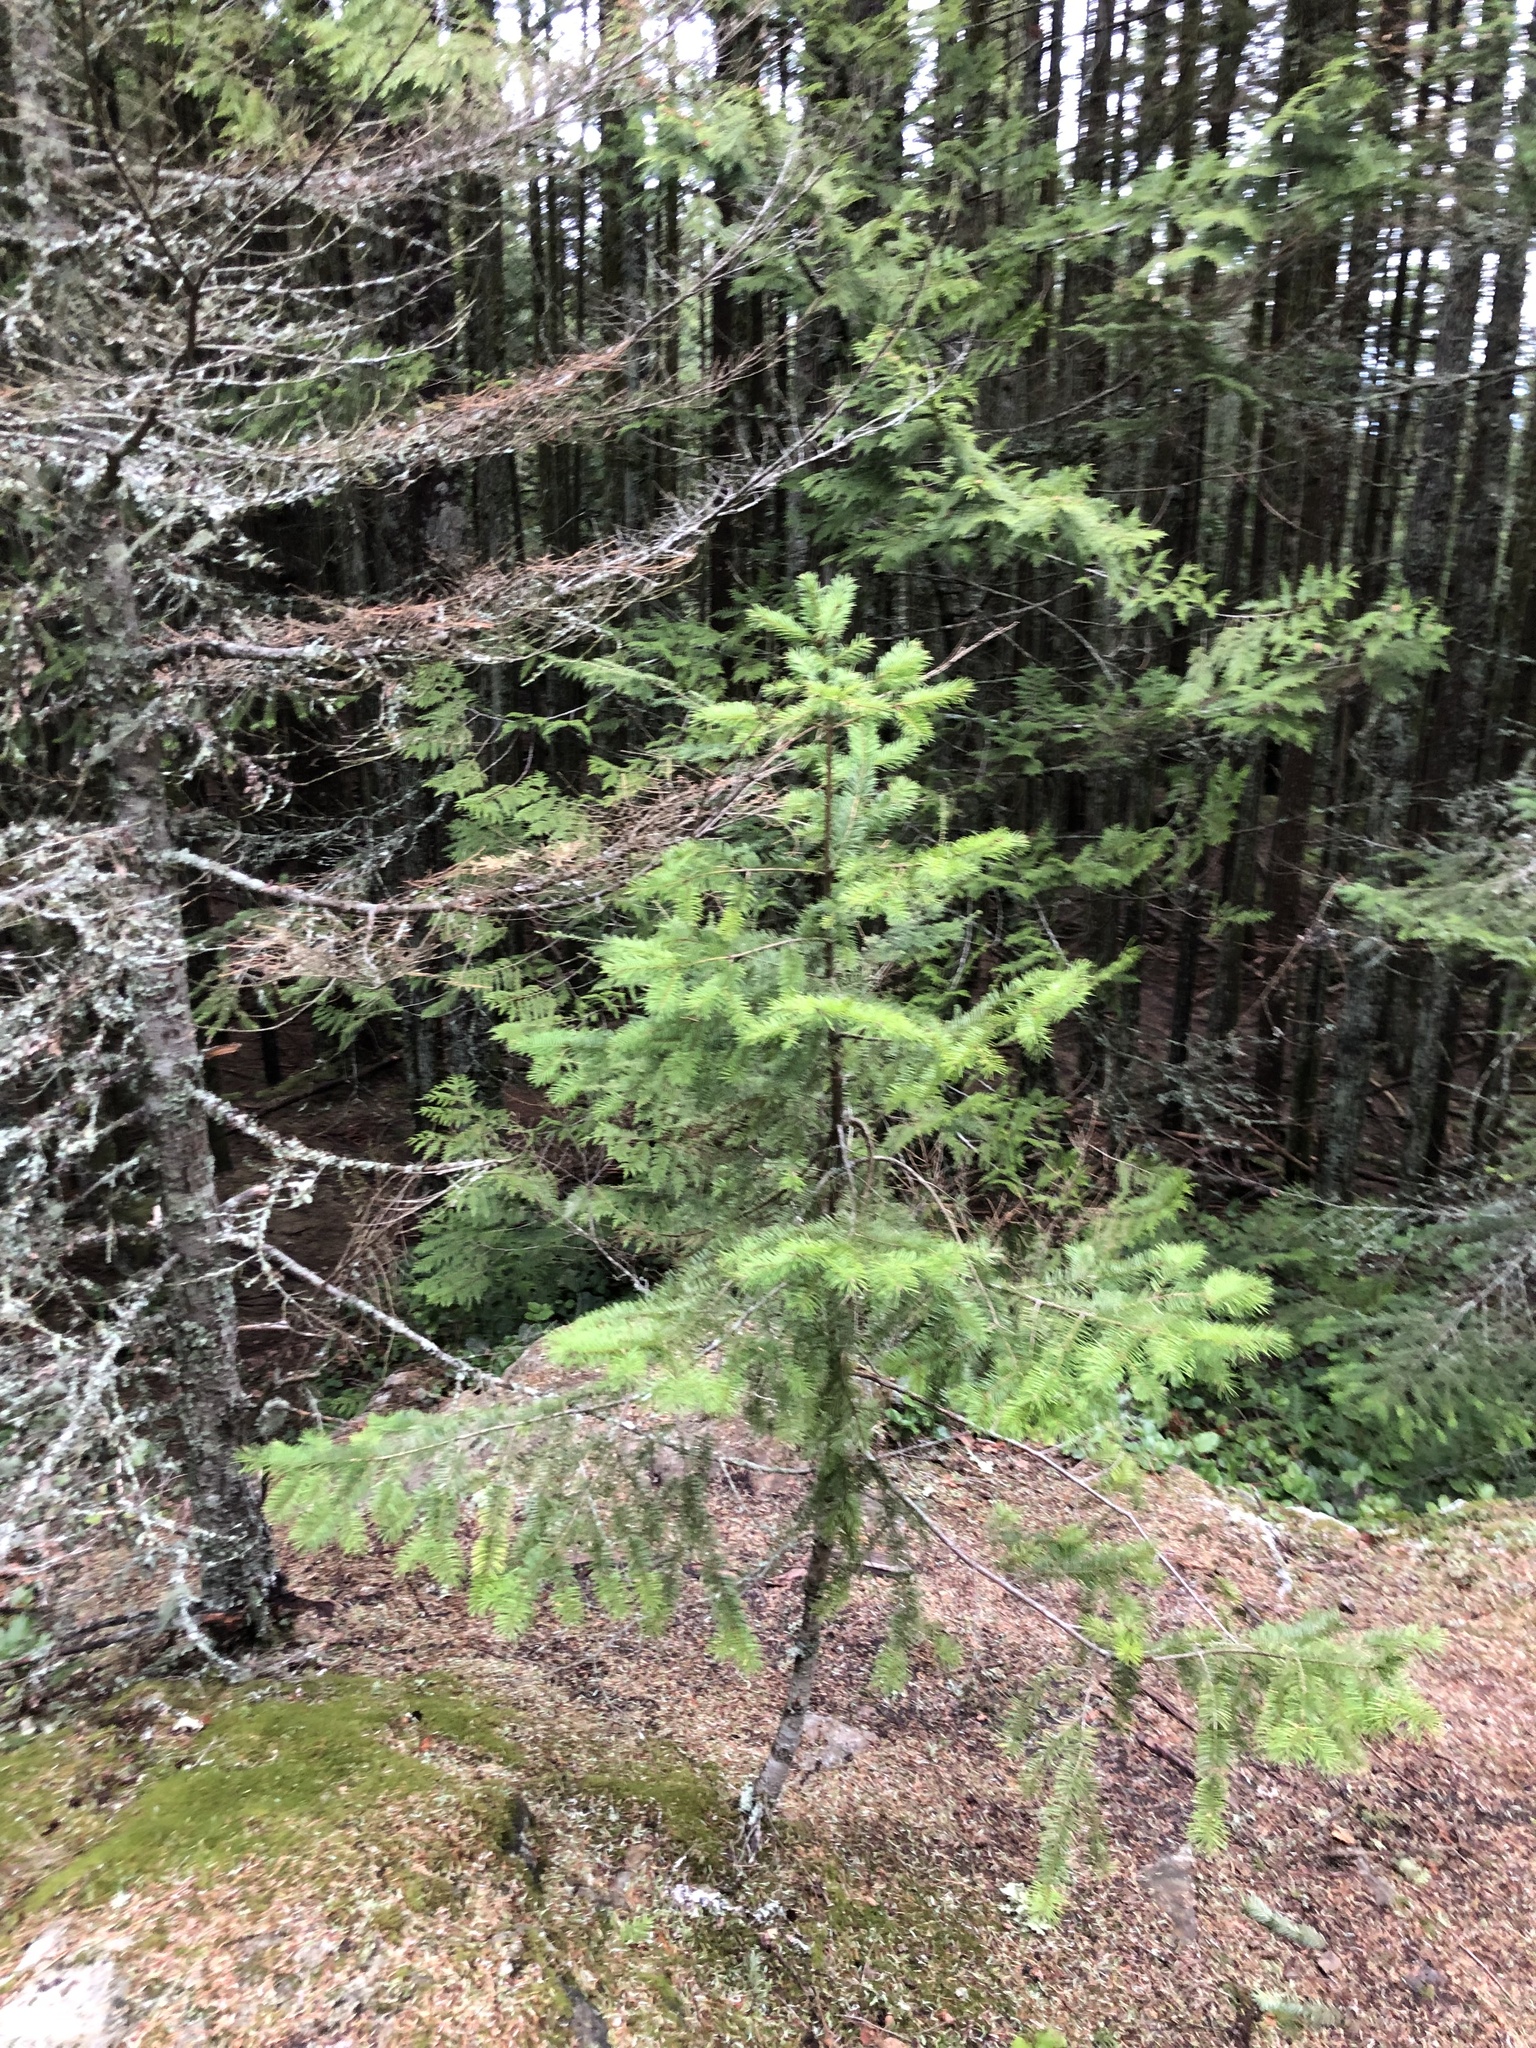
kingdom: Plantae
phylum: Tracheophyta
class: Pinopsida
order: Pinales
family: Pinaceae
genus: Pseudotsuga
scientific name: Pseudotsuga menziesii
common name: Douglas fir
